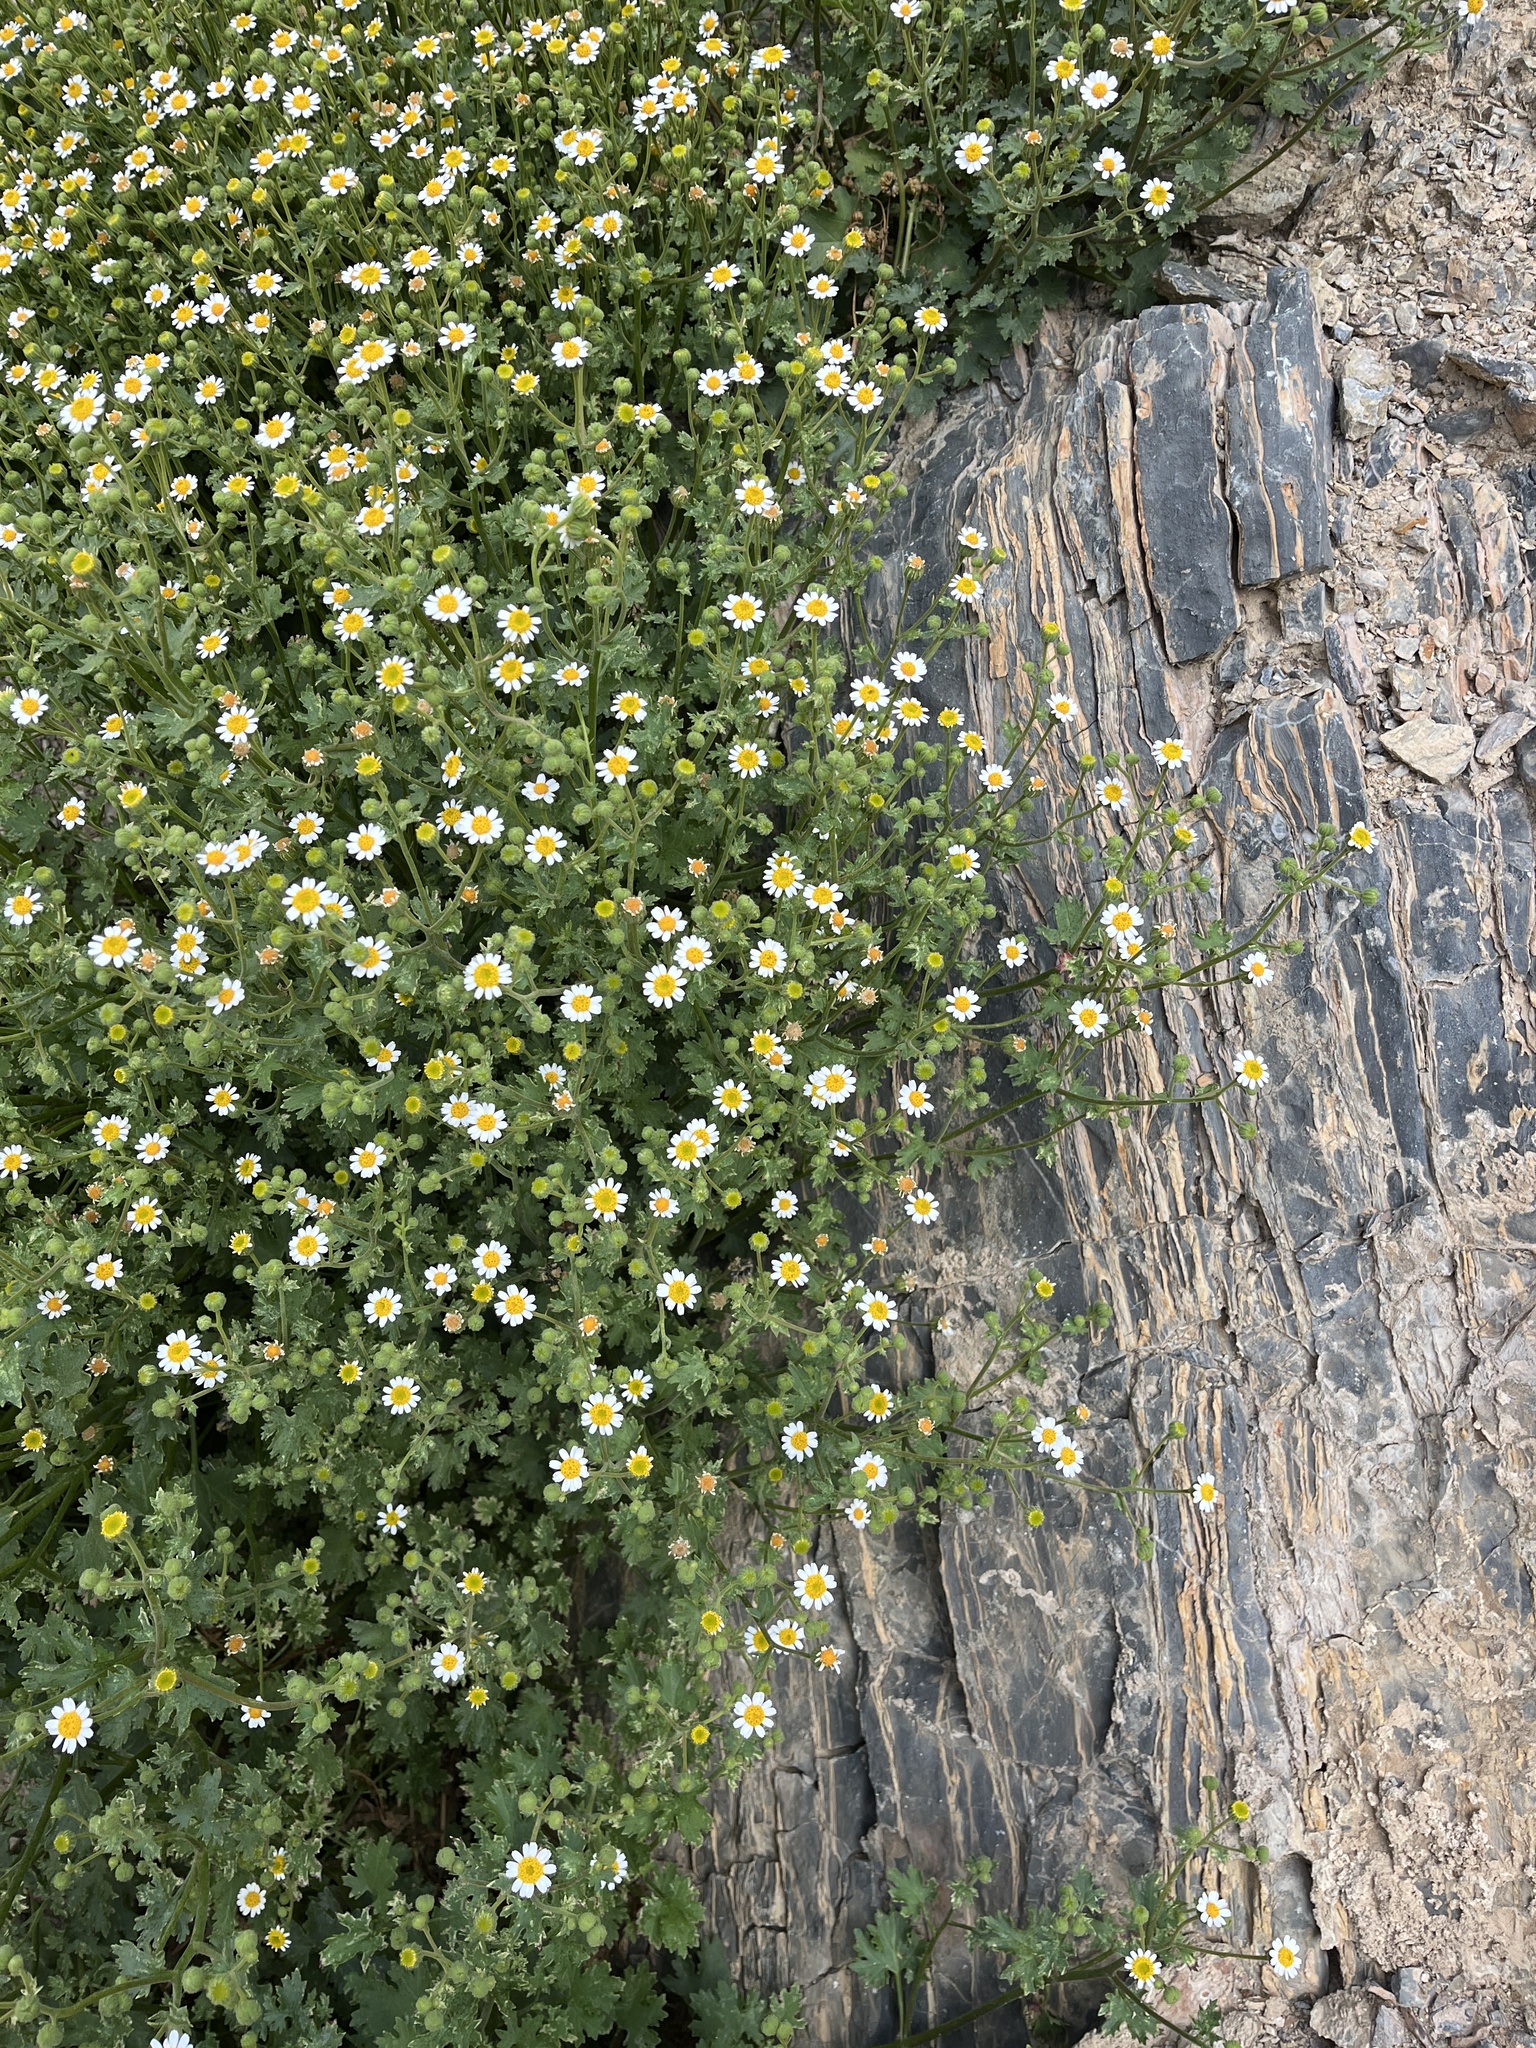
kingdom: Plantae
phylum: Tracheophyta
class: Magnoliopsida
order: Asterales
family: Asteraceae
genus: Laphamia
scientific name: Laphamia emoryi
